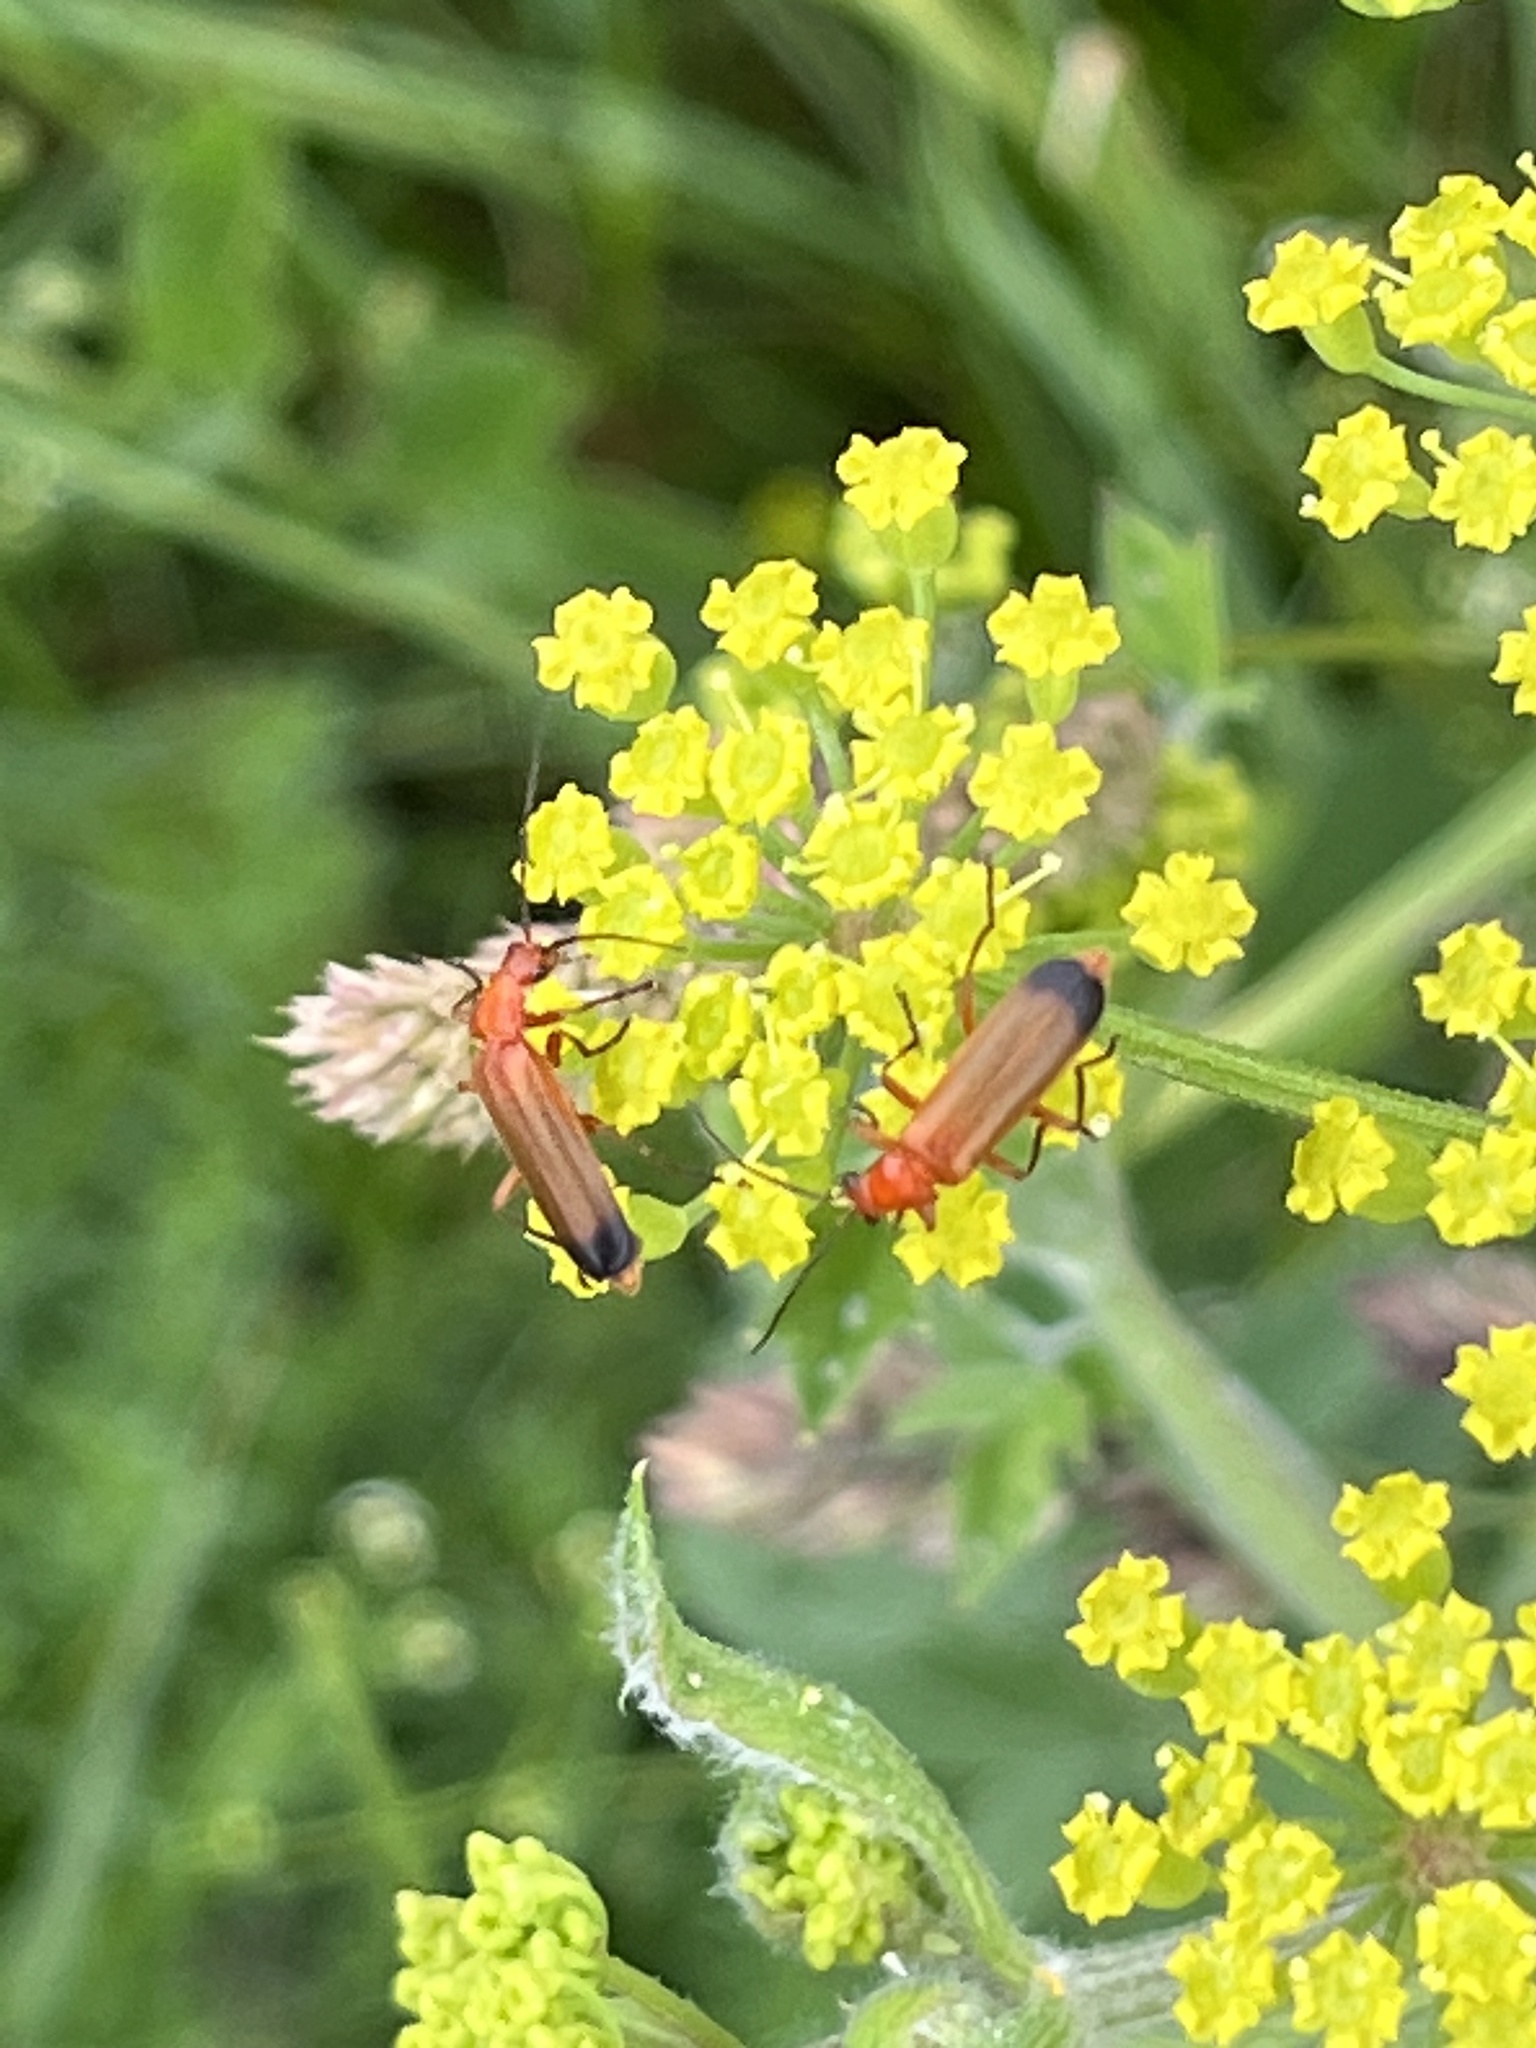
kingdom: Animalia
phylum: Arthropoda
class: Insecta
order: Coleoptera
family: Cantharidae
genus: Rhagonycha
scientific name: Rhagonycha fulva
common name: Common red soldier beetle
